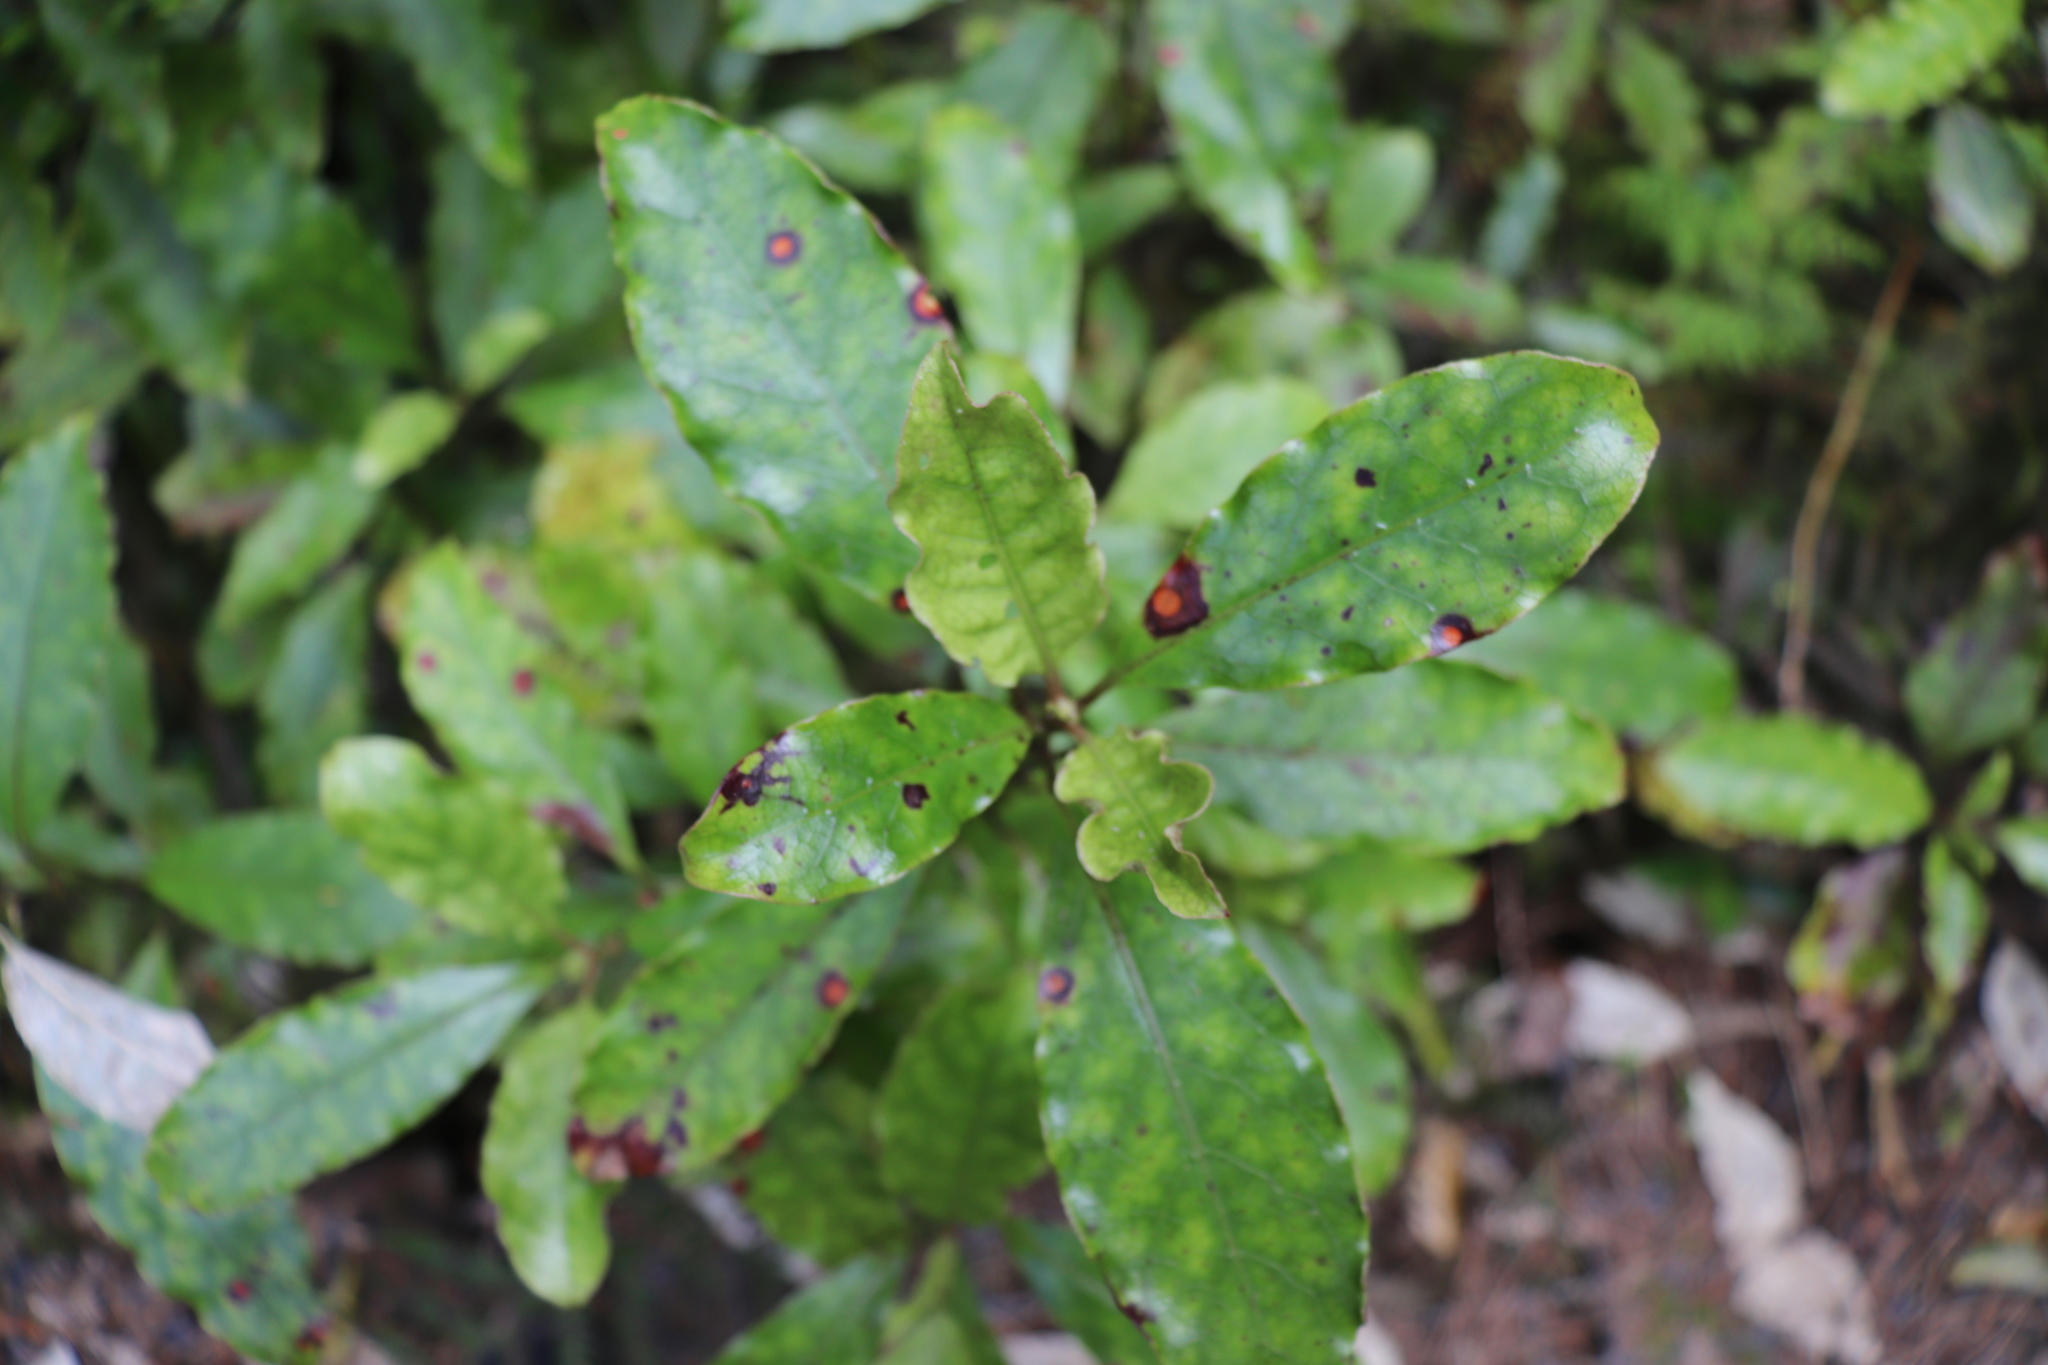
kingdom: Plantae
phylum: Tracheophyta
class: Magnoliopsida
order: Gentianales
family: Rubiaceae
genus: Coprosma
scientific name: Coprosma autumnalis
